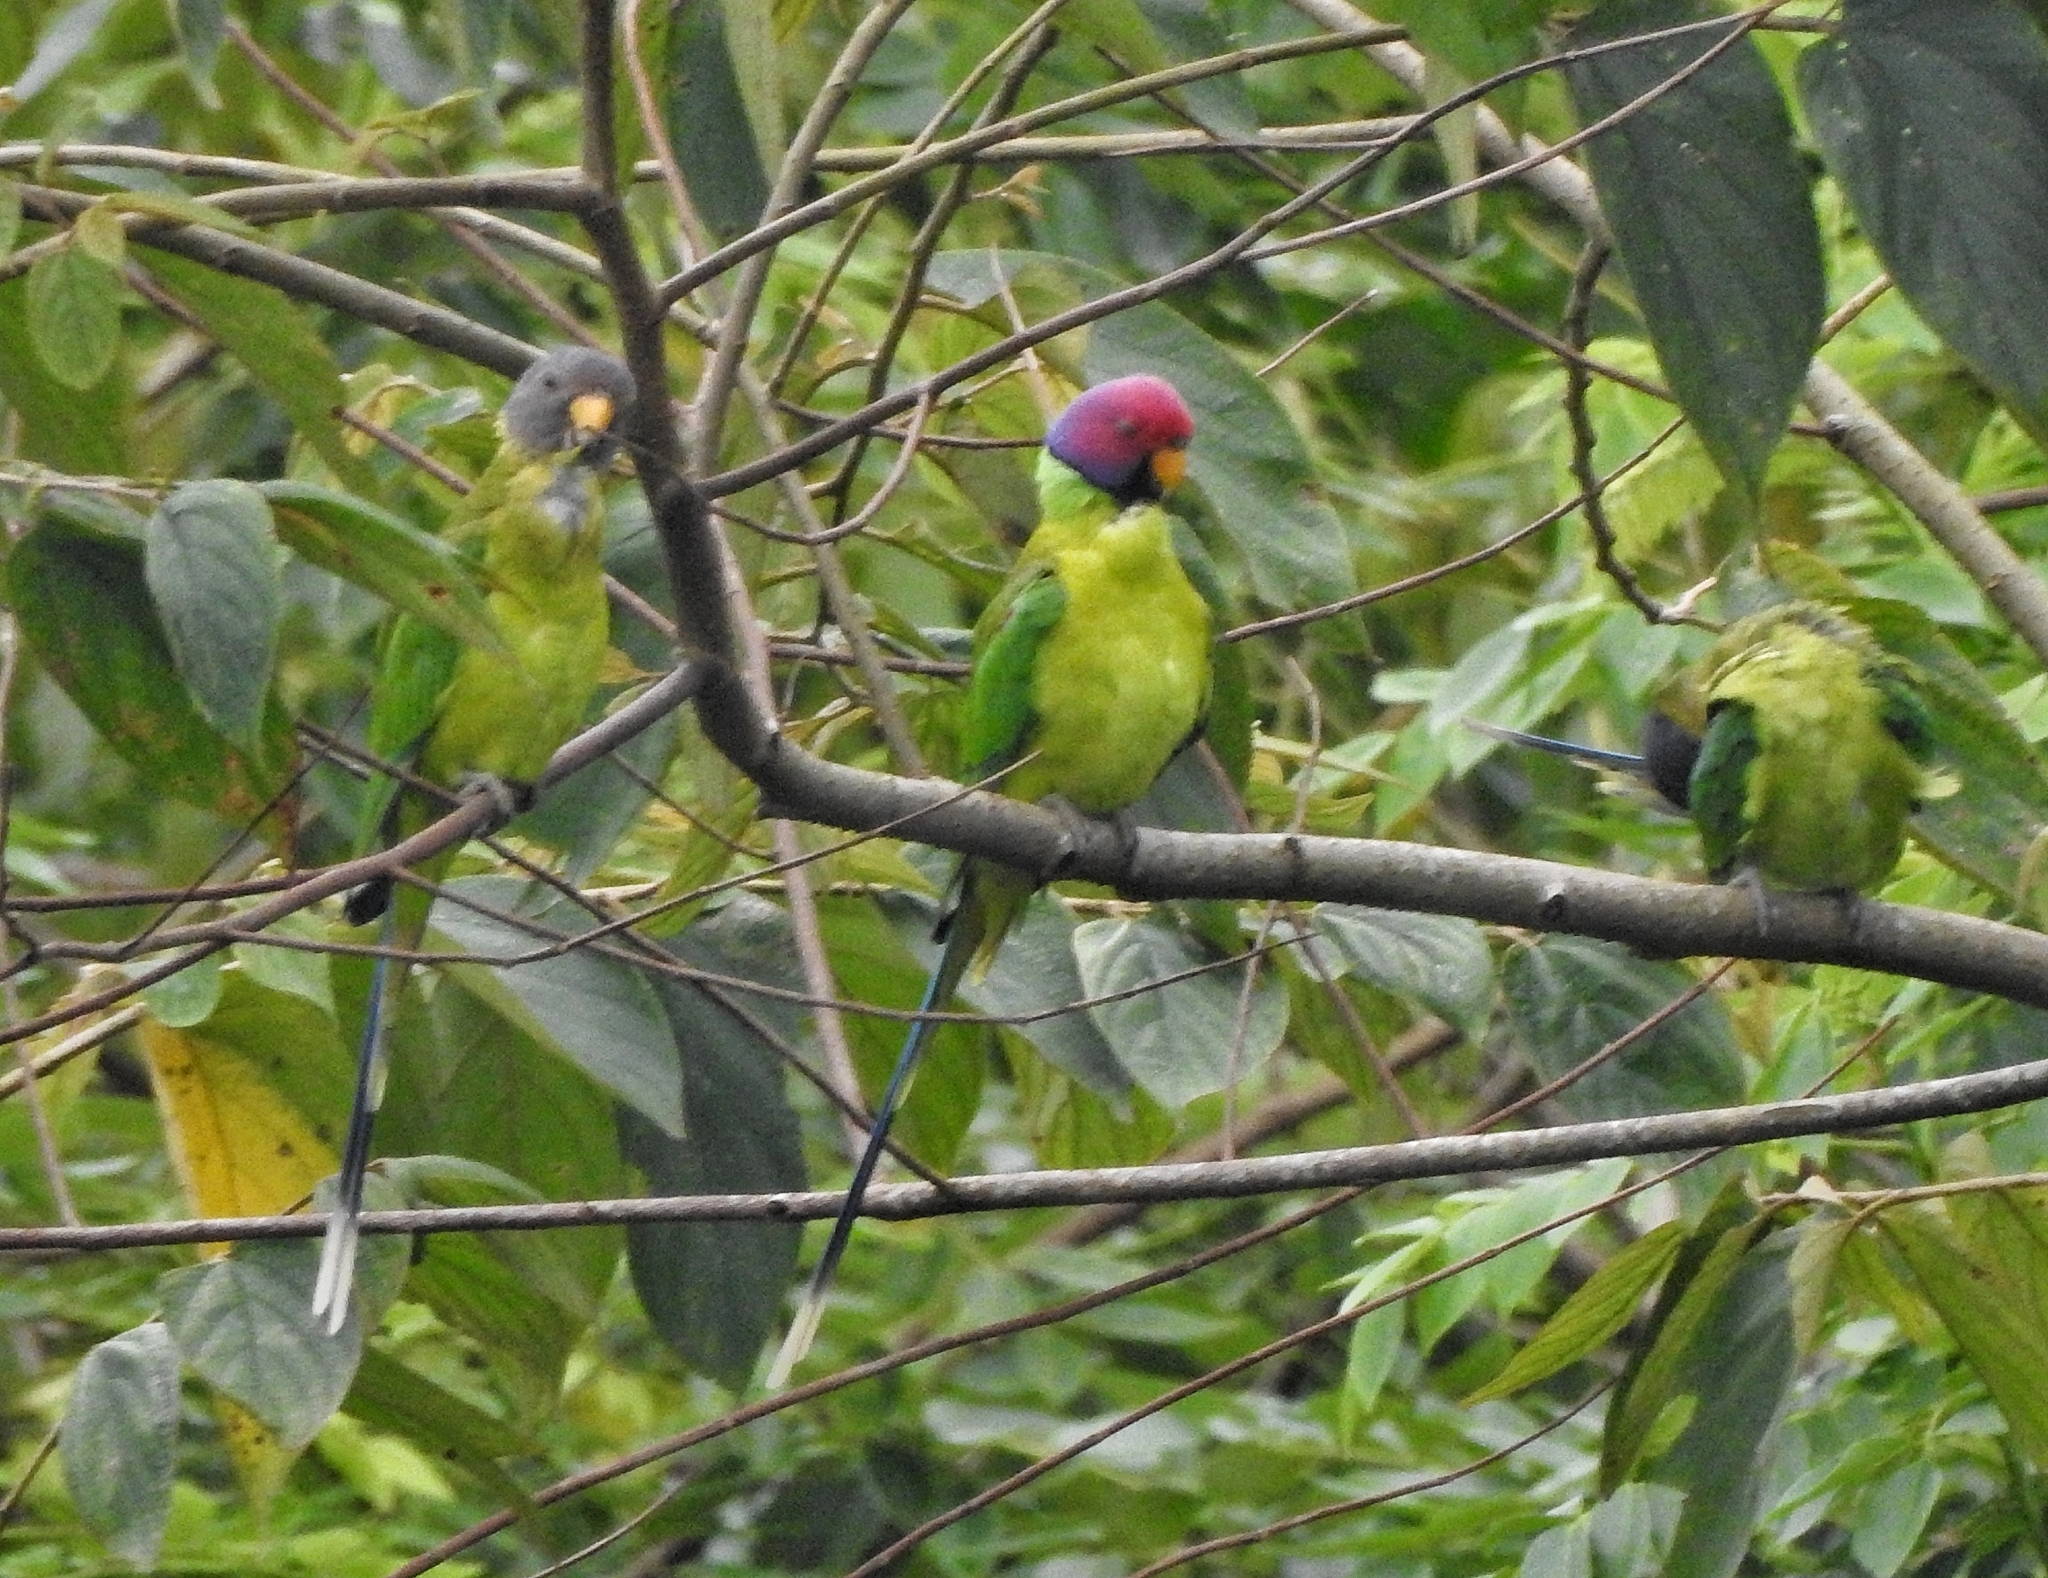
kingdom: Animalia
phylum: Chordata
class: Aves
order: Psittaciformes
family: Psittacidae
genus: Psittacula
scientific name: Psittacula cyanocephala
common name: Plum-headed parakeet
